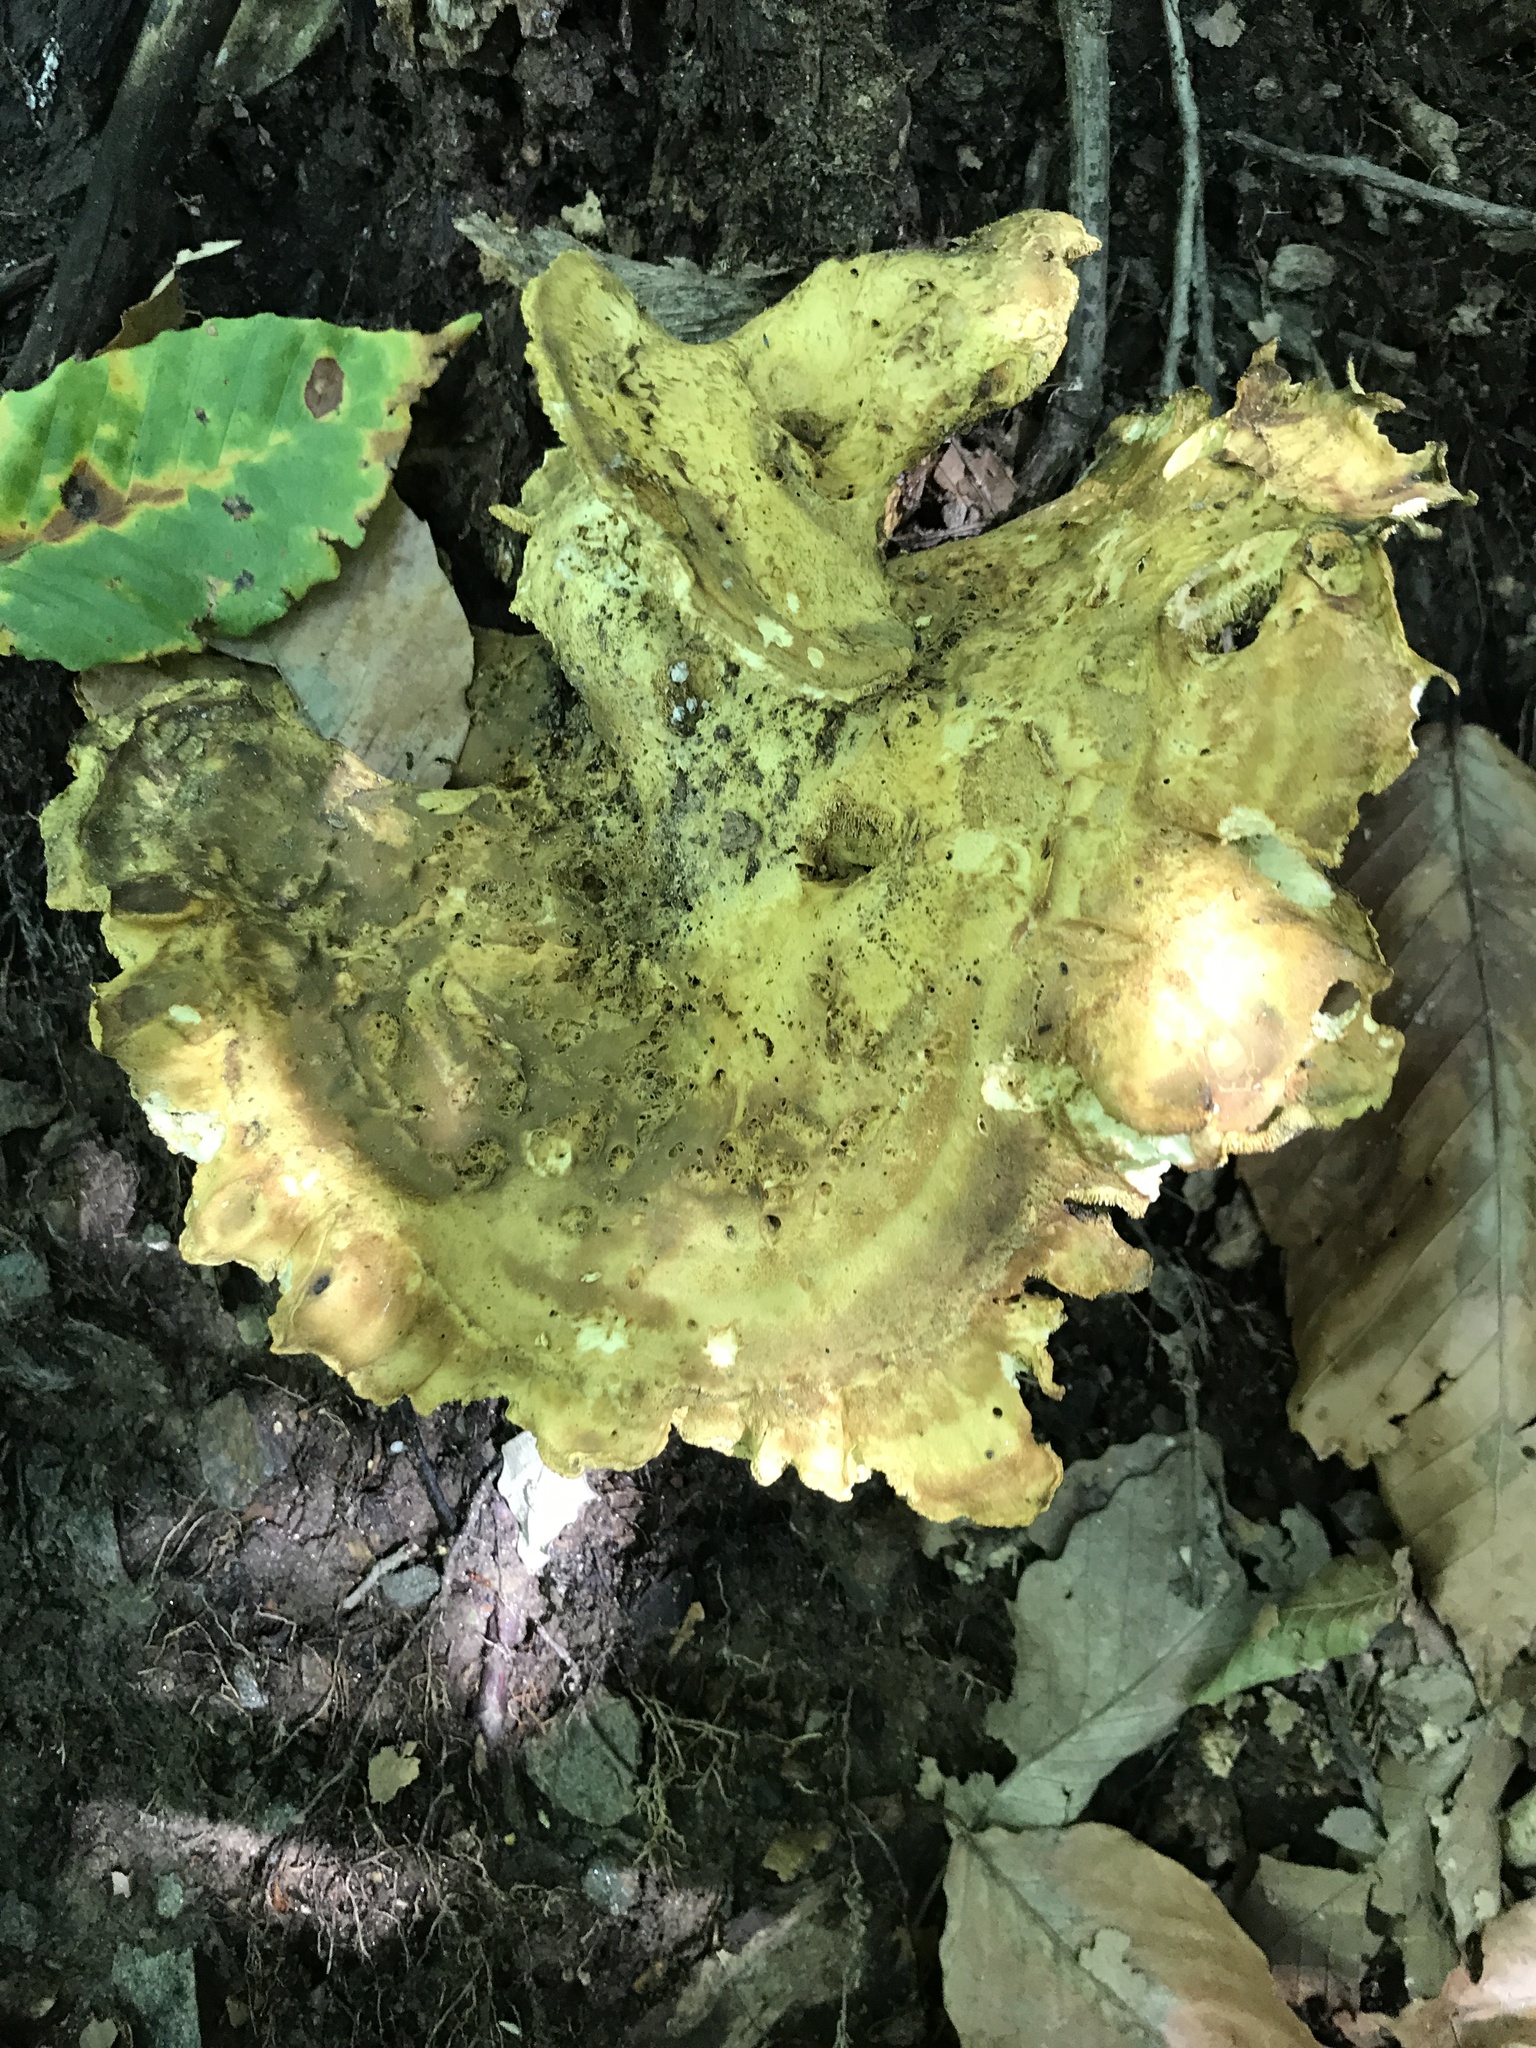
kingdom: Fungi
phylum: Basidiomycota
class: Agaricomycetes
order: Russulales
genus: Laeticutis
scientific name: Laeticutis cristata
